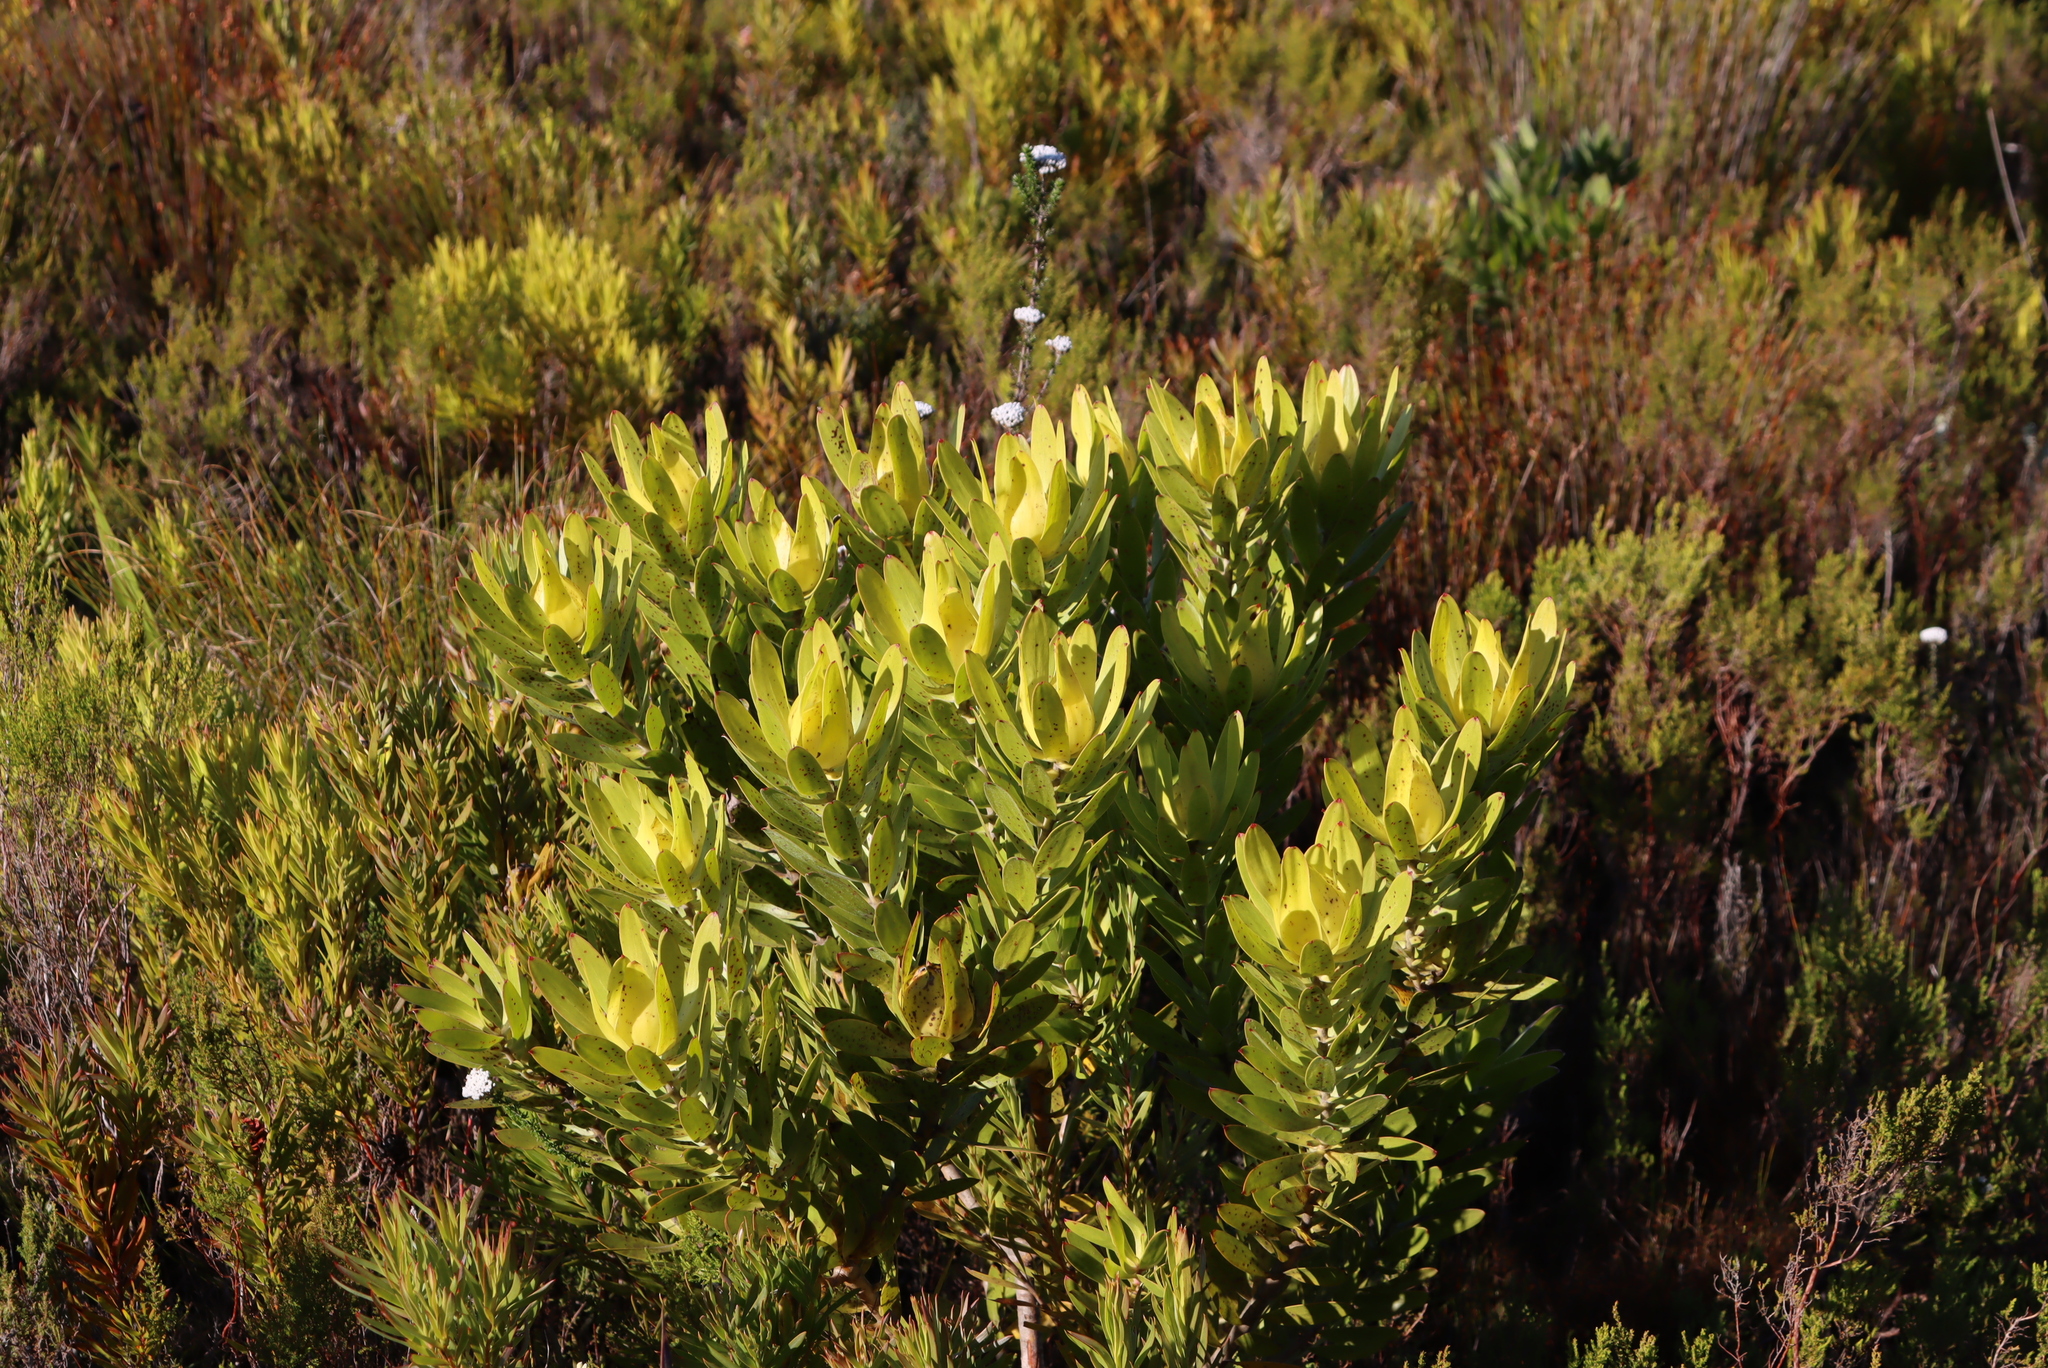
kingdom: Plantae
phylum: Tracheophyta
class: Magnoliopsida
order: Proteales
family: Proteaceae
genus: Leucadendron
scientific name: Leucadendron laureolum
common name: Golden sunshinebush
